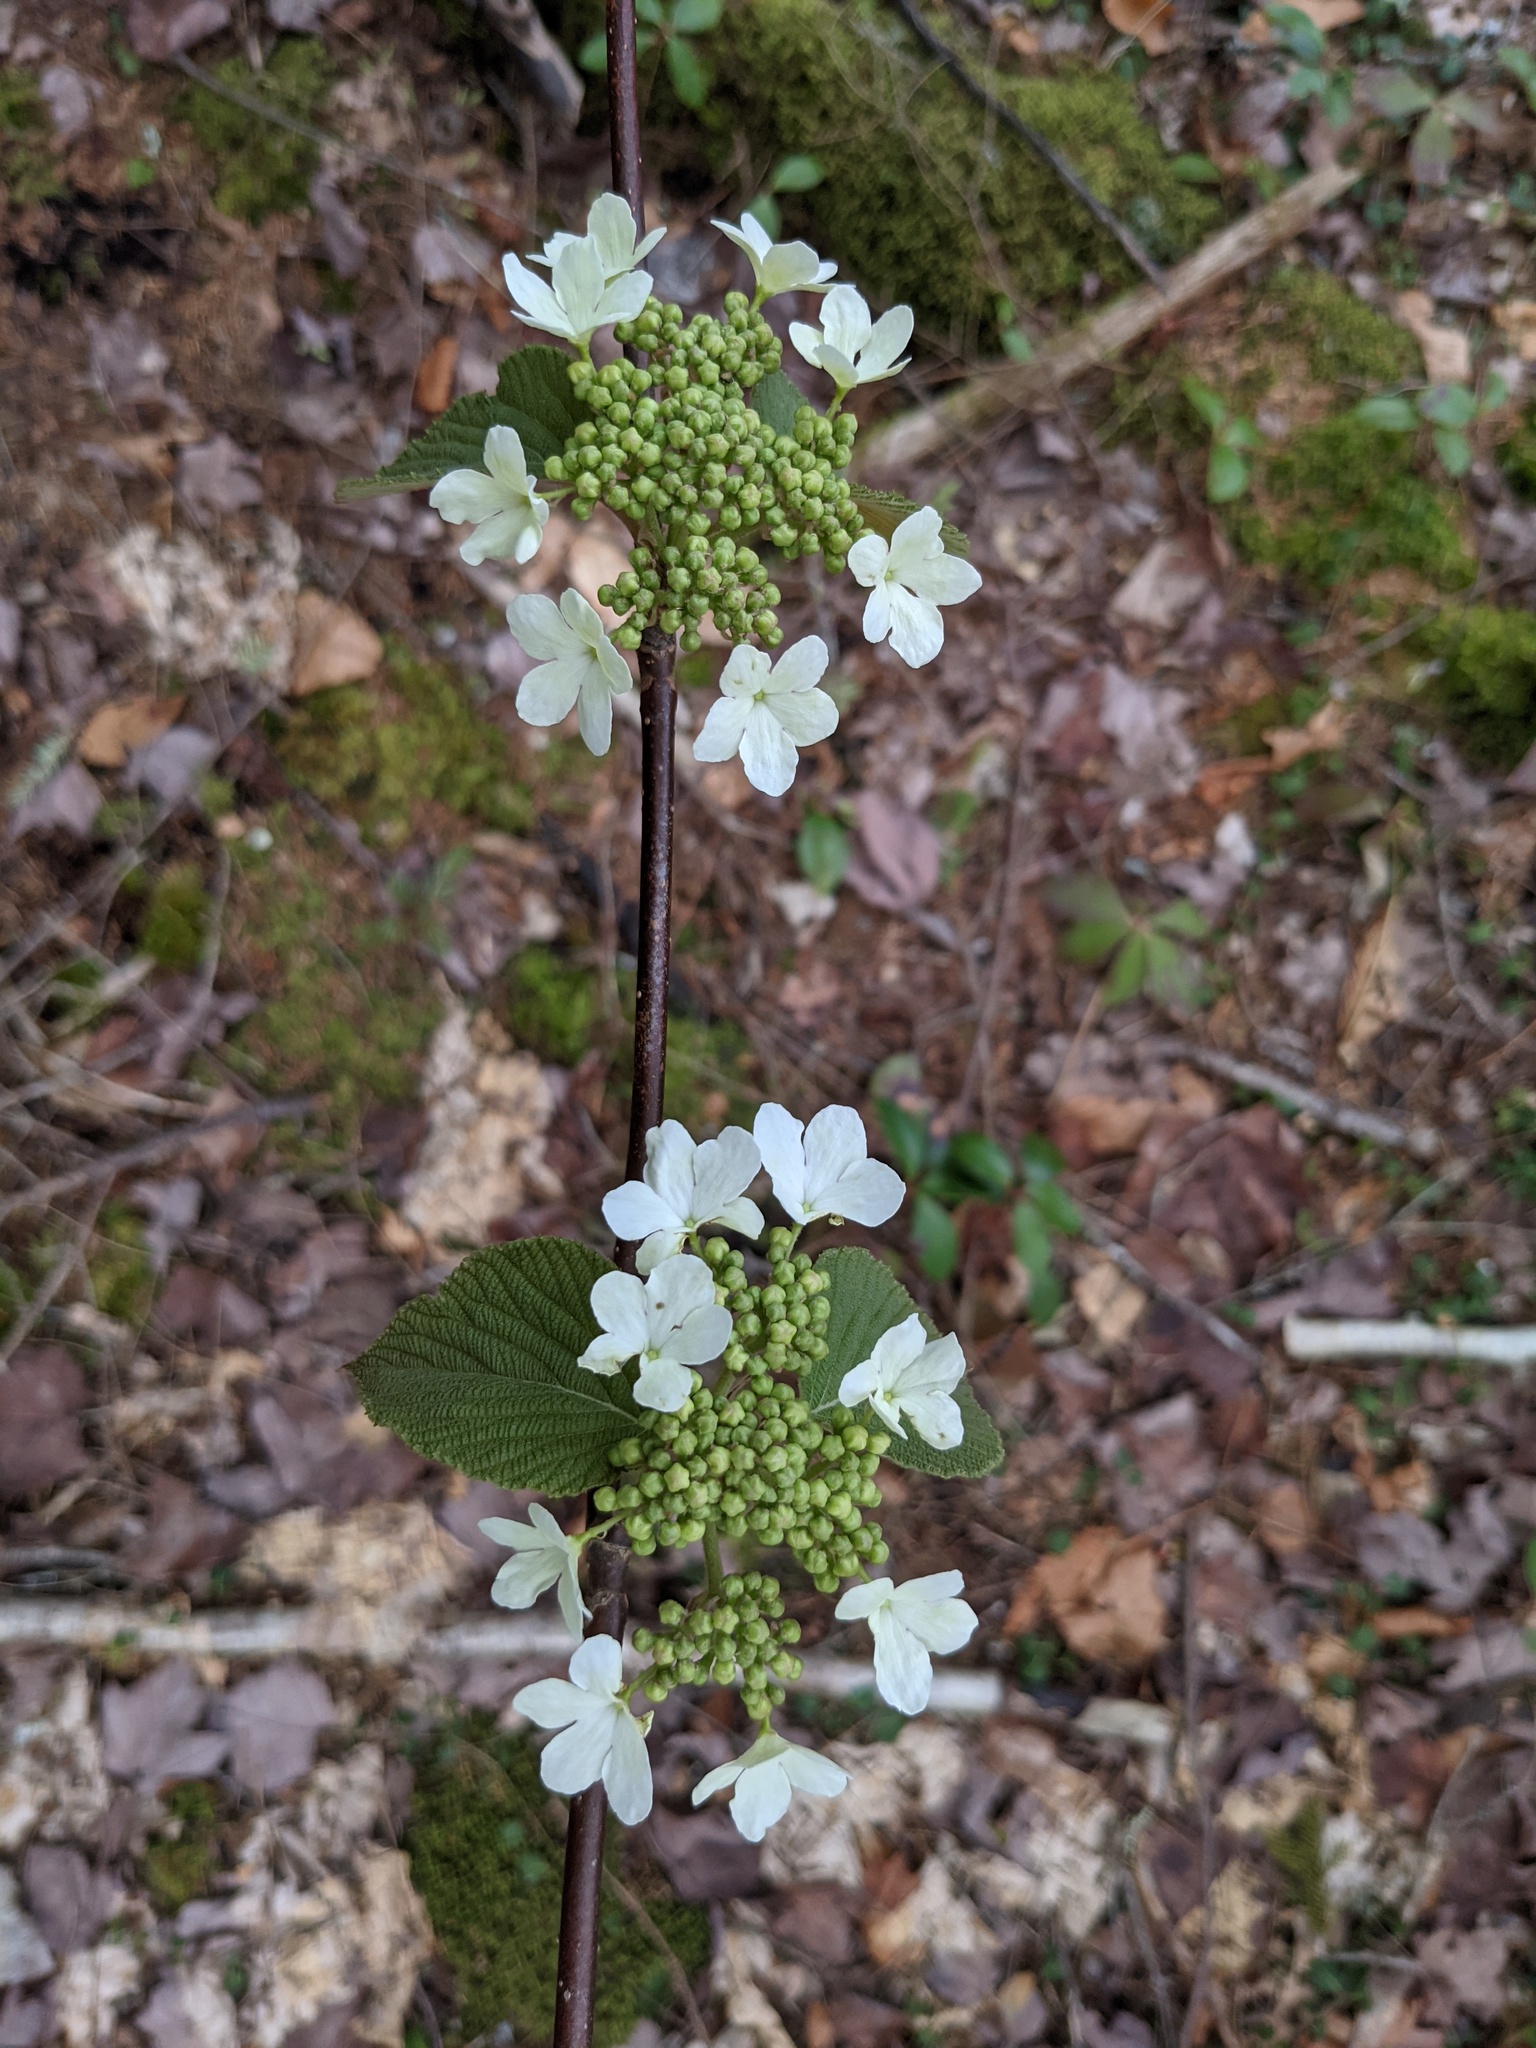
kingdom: Plantae
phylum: Tracheophyta
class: Magnoliopsida
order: Dipsacales
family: Viburnaceae
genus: Viburnum
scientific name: Viburnum lantanoides
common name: Hobblebush
